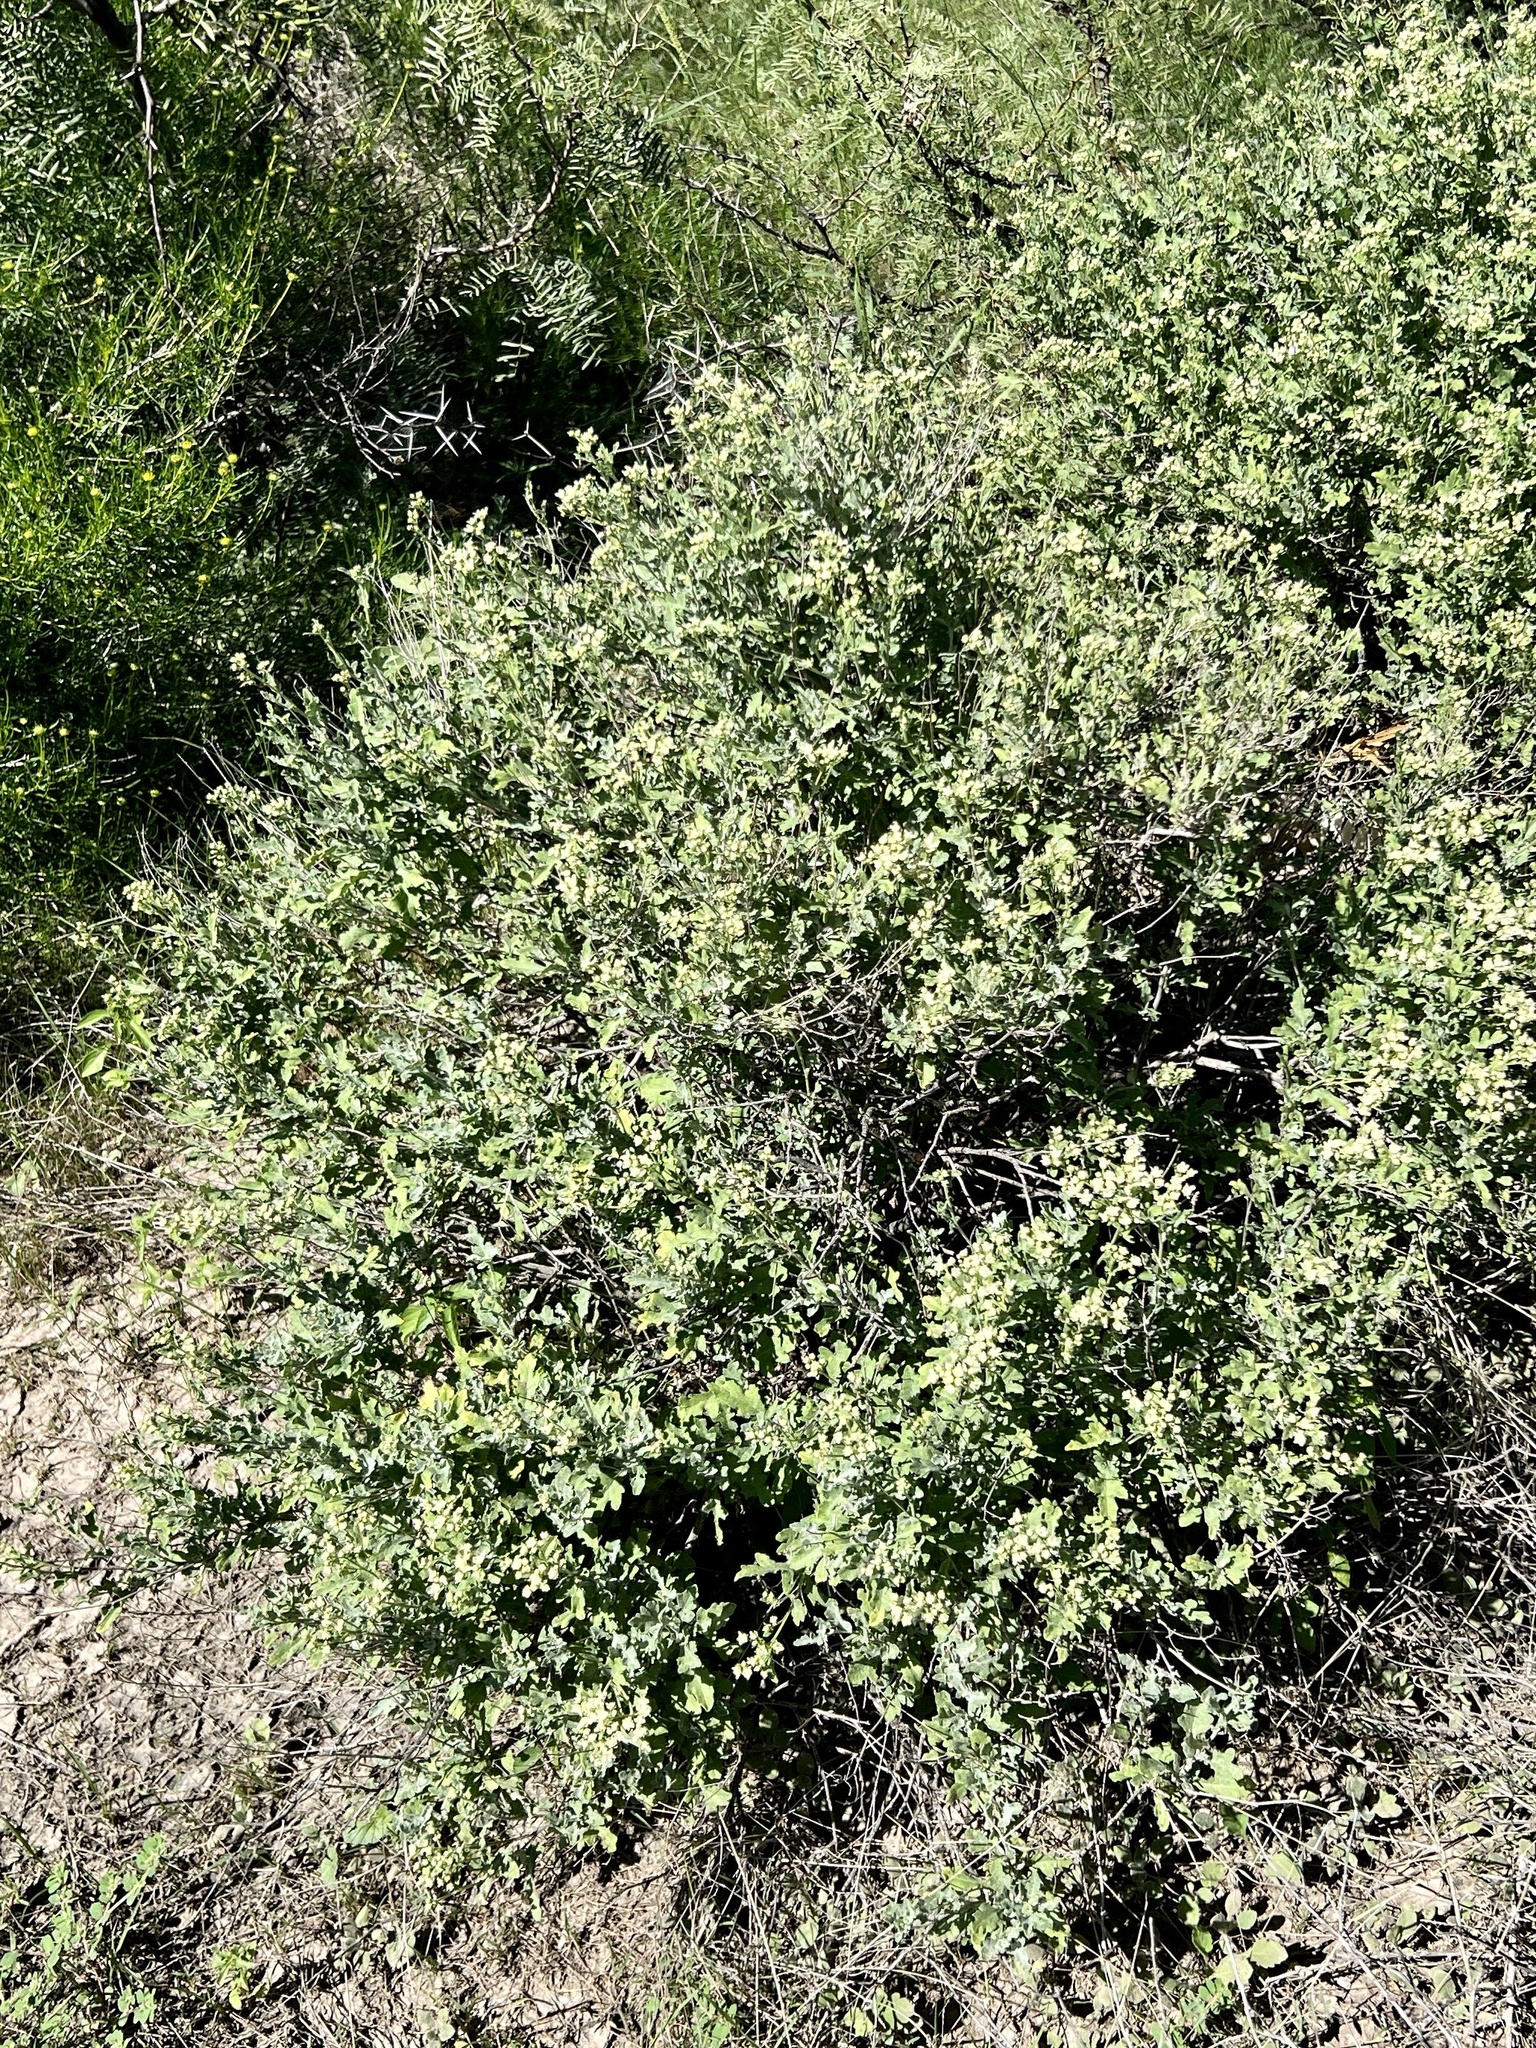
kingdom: Plantae
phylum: Tracheophyta
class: Magnoliopsida
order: Asterales
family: Asteraceae
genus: Parthenium
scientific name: Parthenium incanum
